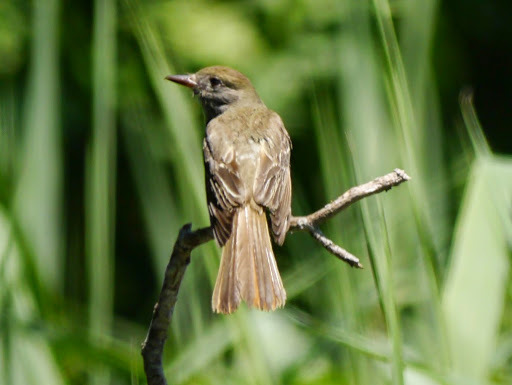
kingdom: Animalia
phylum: Chordata
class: Aves
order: Passeriformes
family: Tyrannidae
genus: Myiarchus
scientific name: Myiarchus crinitus
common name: Great crested flycatcher
